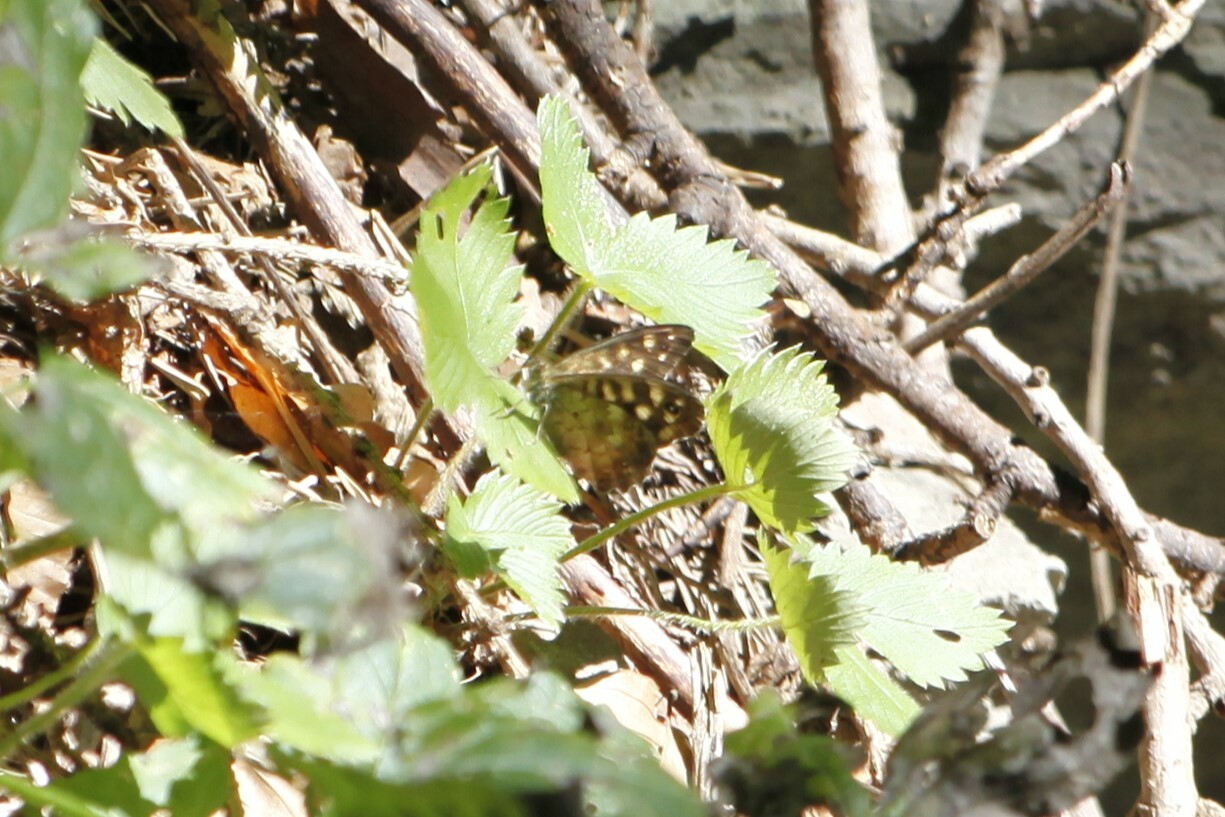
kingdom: Animalia
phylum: Arthropoda
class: Insecta
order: Lepidoptera
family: Nymphalidae
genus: Pararge
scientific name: Pararge aegeria
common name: Speckled wood
